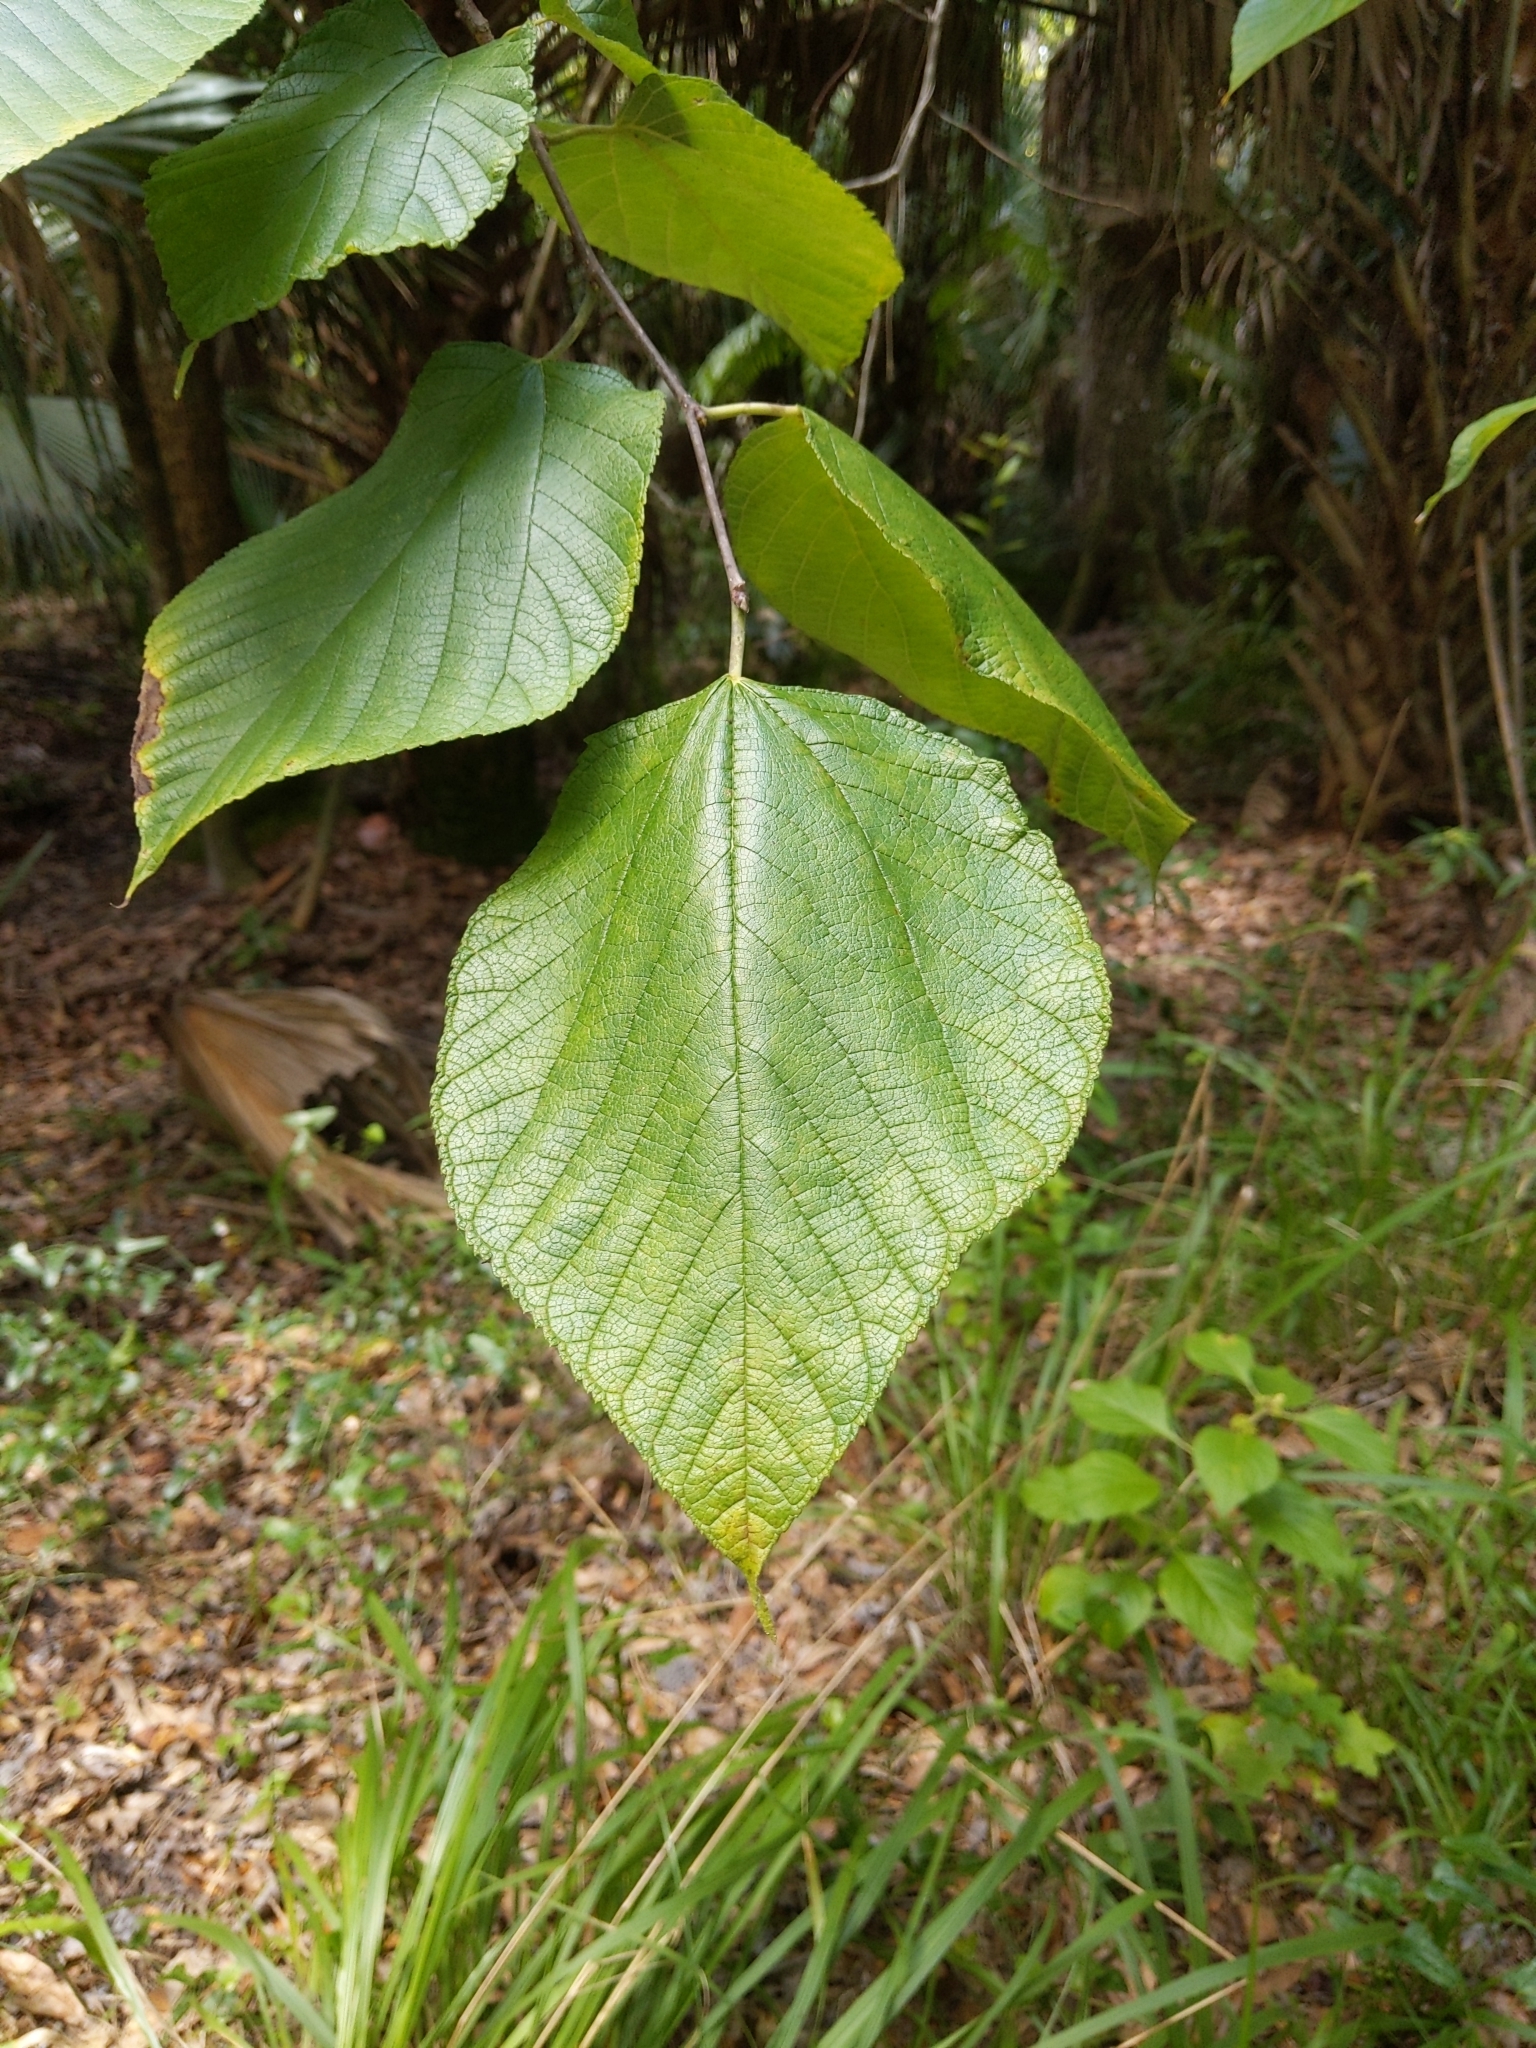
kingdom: Plantae
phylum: Tracheophyta
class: Magnoliopsida
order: Rosales
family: Moraceae
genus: Morus
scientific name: Morus rubra
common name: Red mulberry
